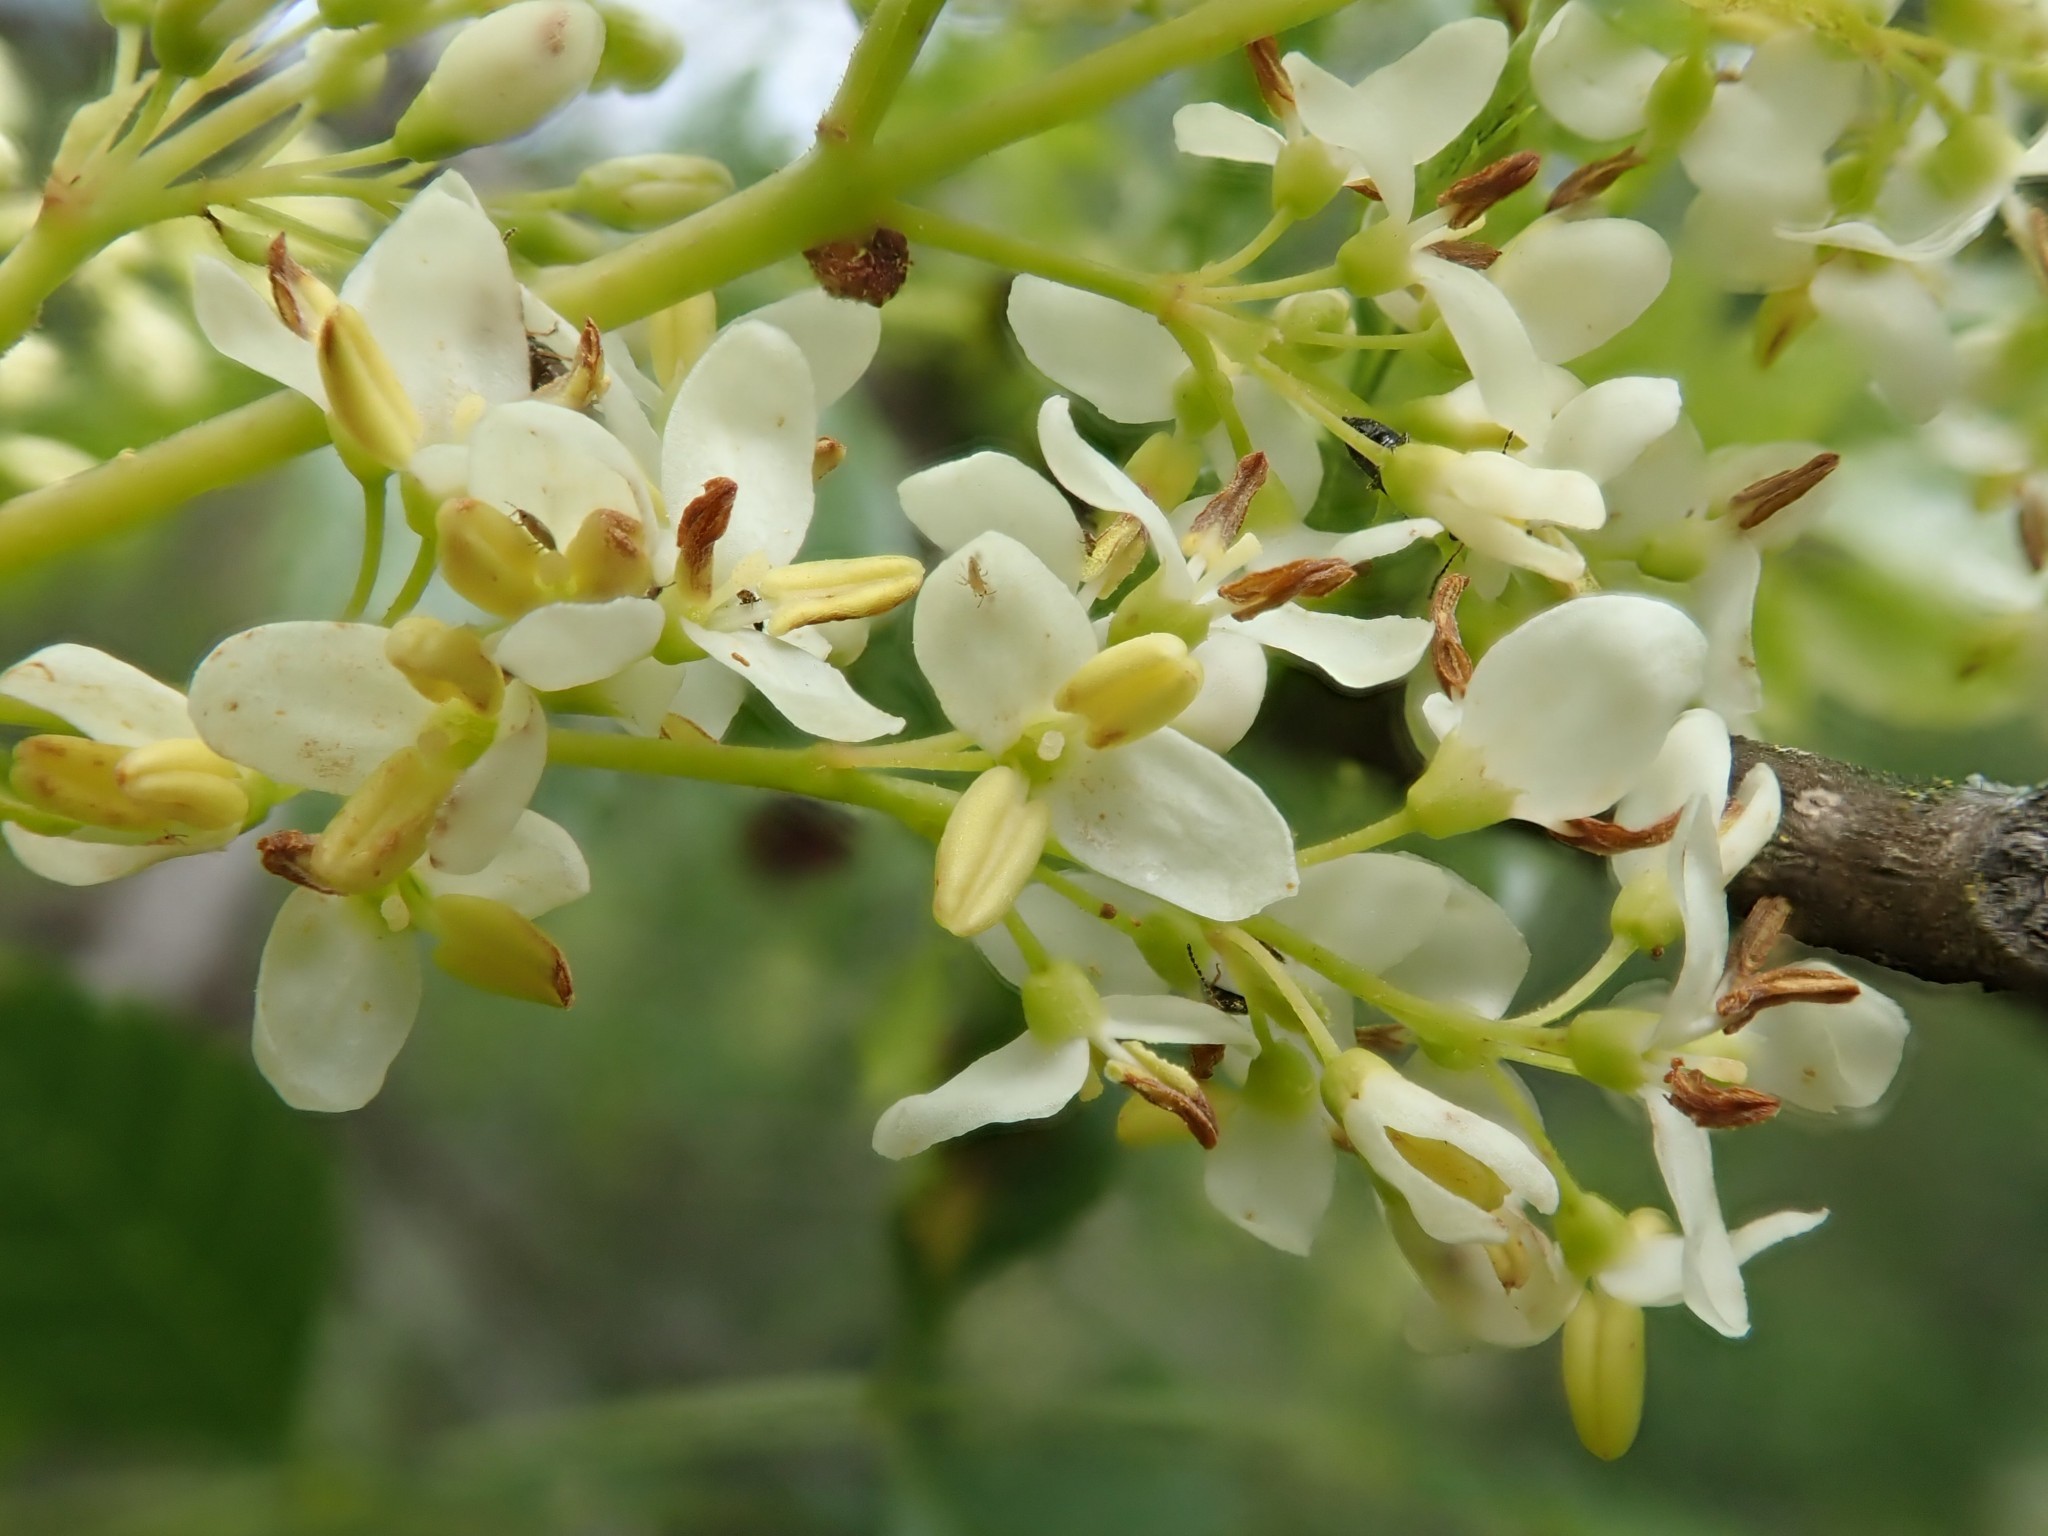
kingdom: Plantae
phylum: Tracheophyta
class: Magnoliopsida
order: Lamiales
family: Oleaceae
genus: Fraxinus
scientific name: Fraxinus dipetala
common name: California ash
